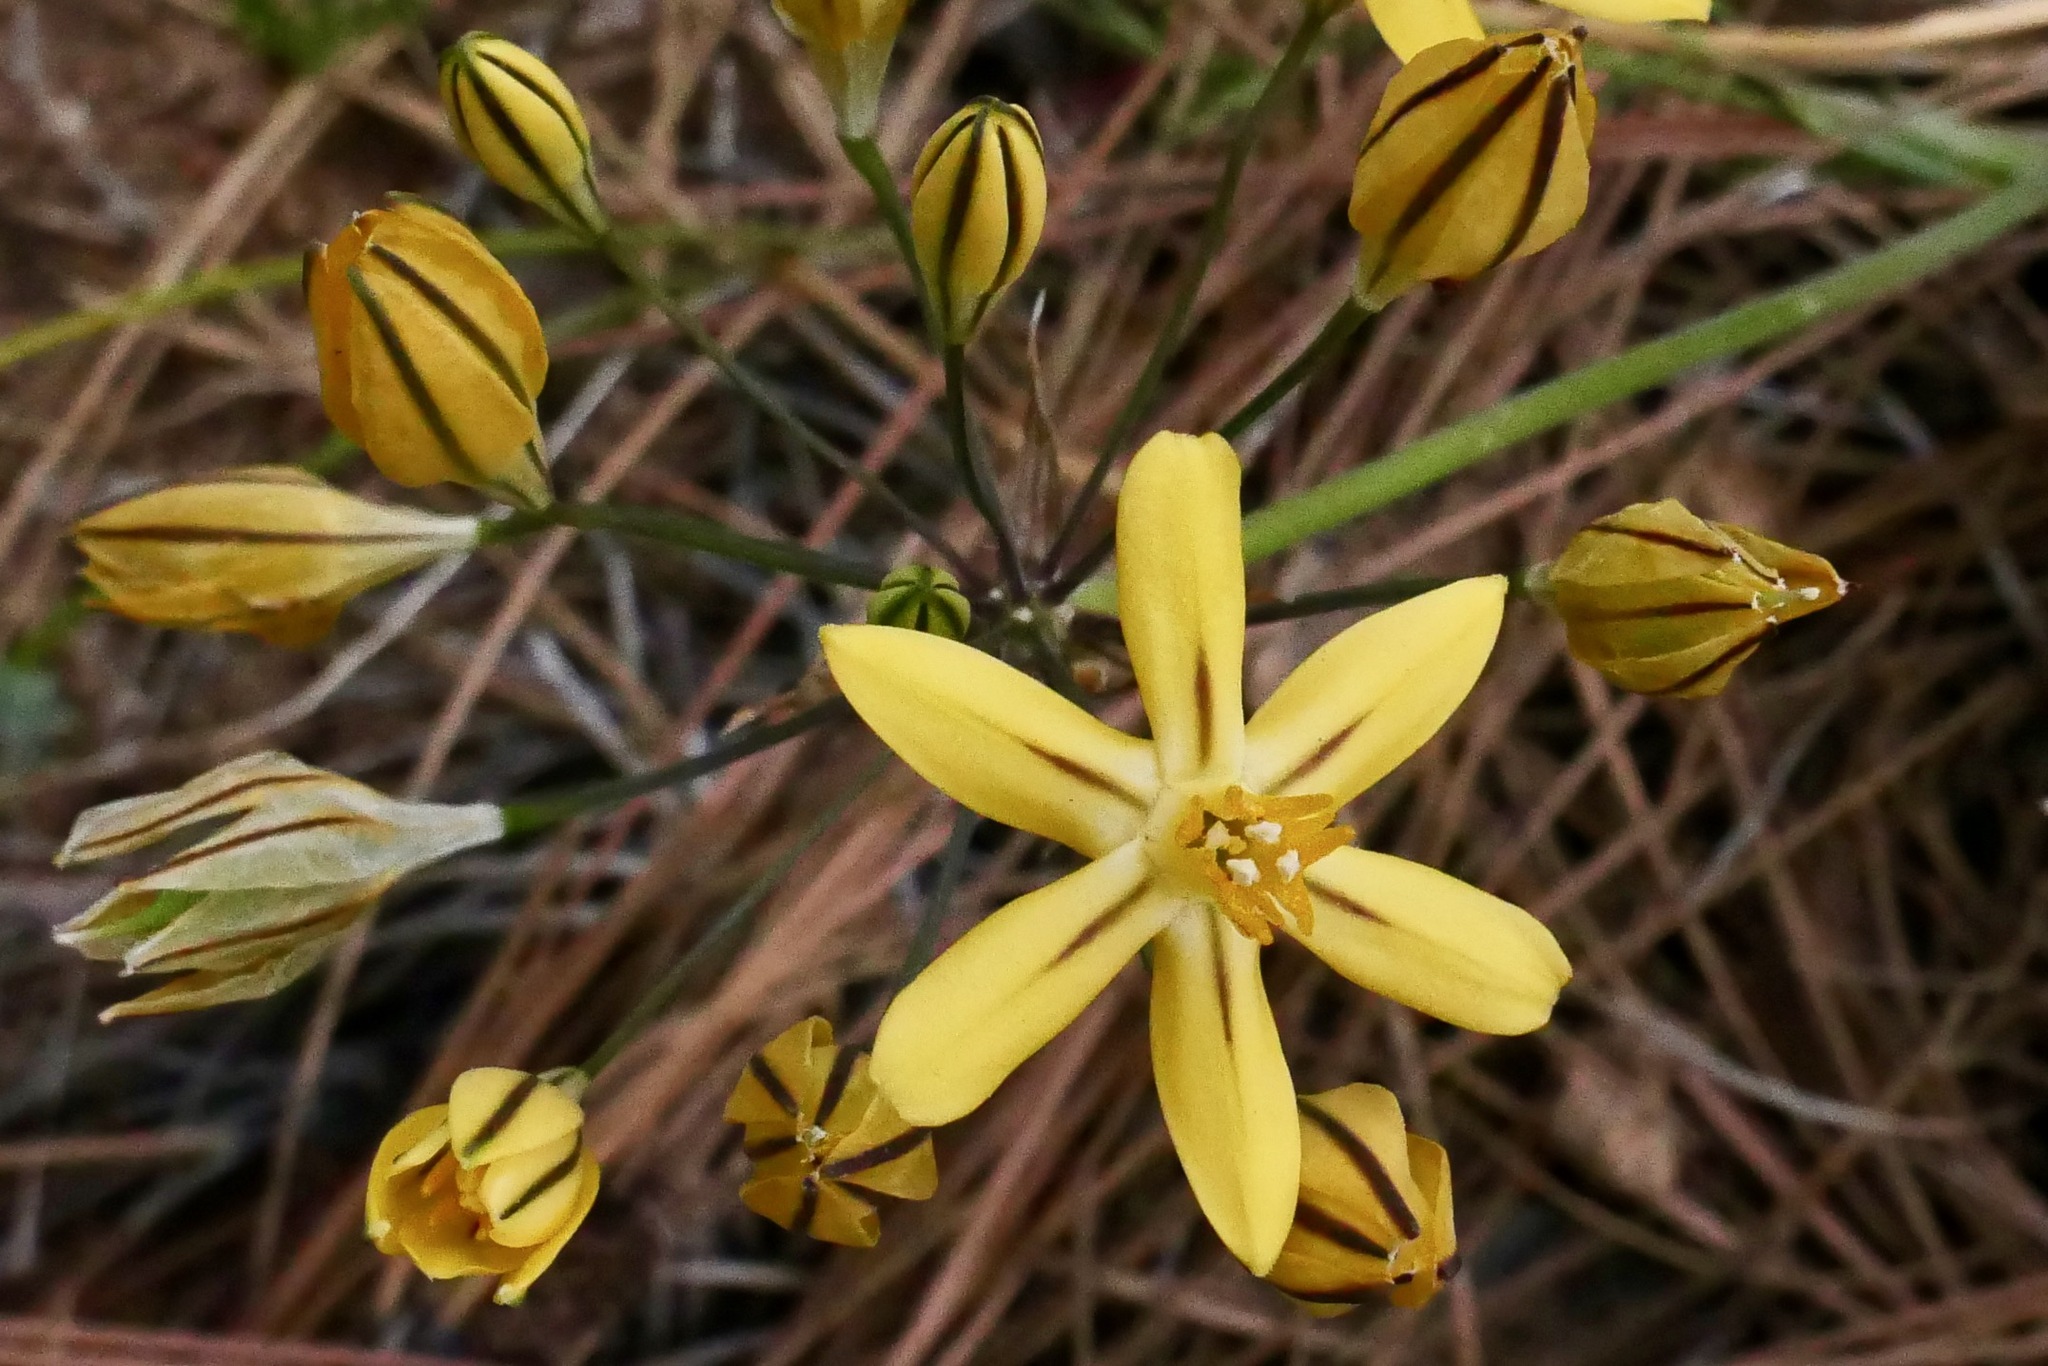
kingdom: Plantae
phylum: Tracheophyta
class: Liliopsida
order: Asparagales
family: Asparagaceae
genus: Triteleia
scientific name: Triteleia ixioides
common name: Yellow-brodiaea
